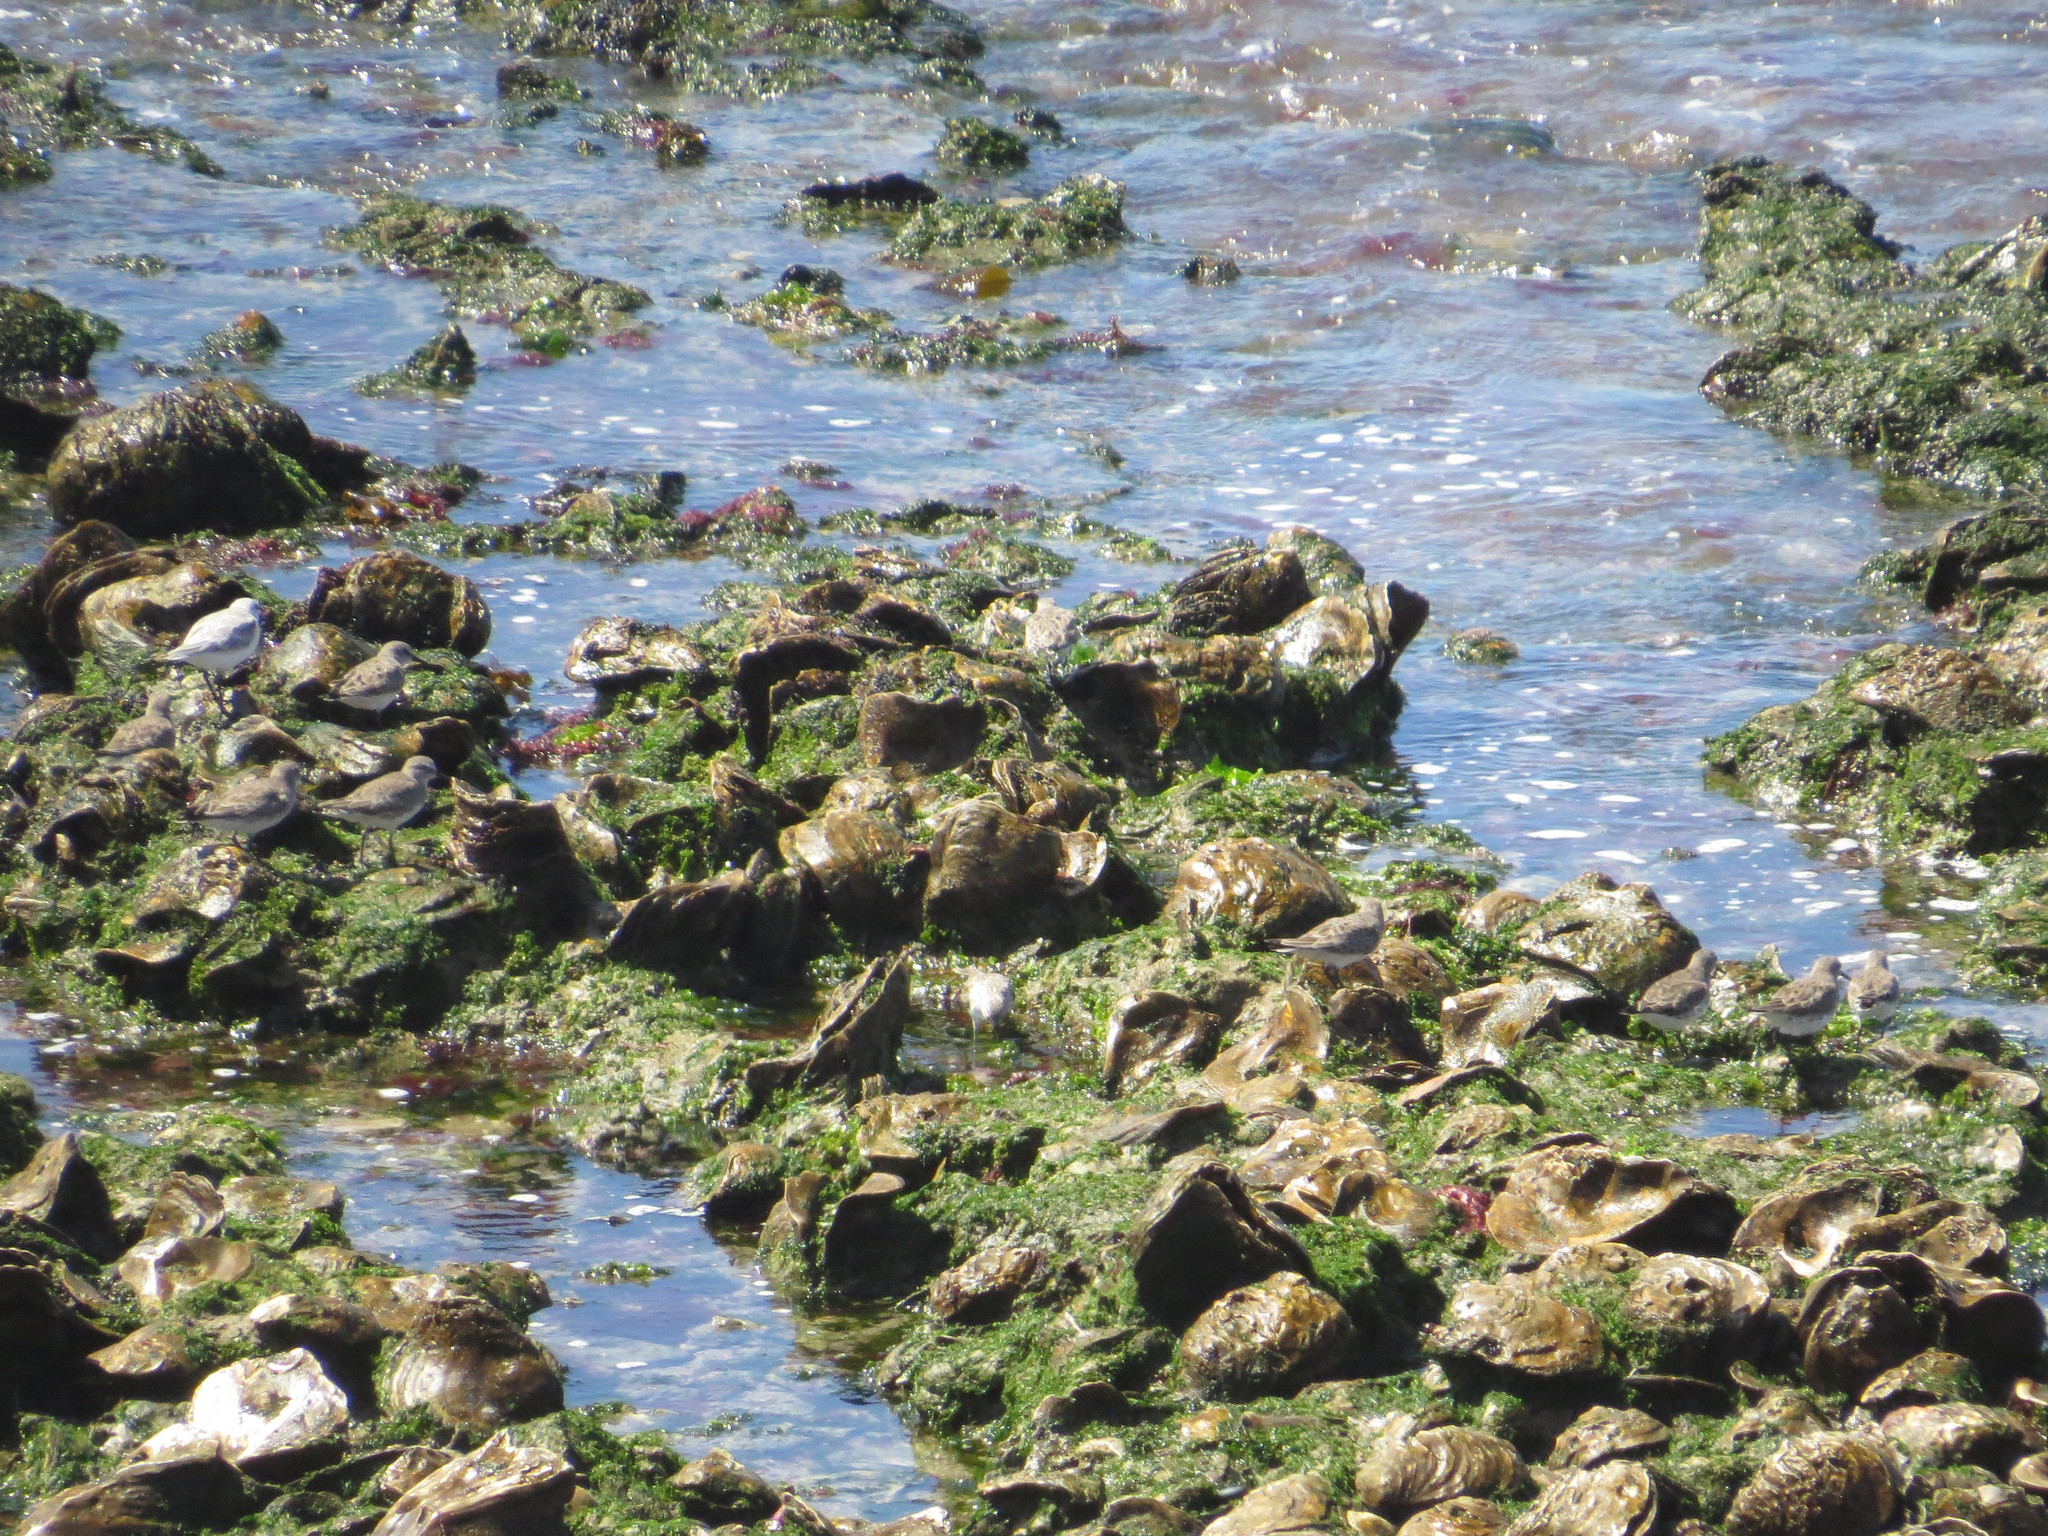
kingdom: Animalia
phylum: Chordata
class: Aves
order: Charadriiformes
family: Scolopacidae
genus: Calidris
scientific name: Calidris fuscicollis
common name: White-rumped sandpiper
